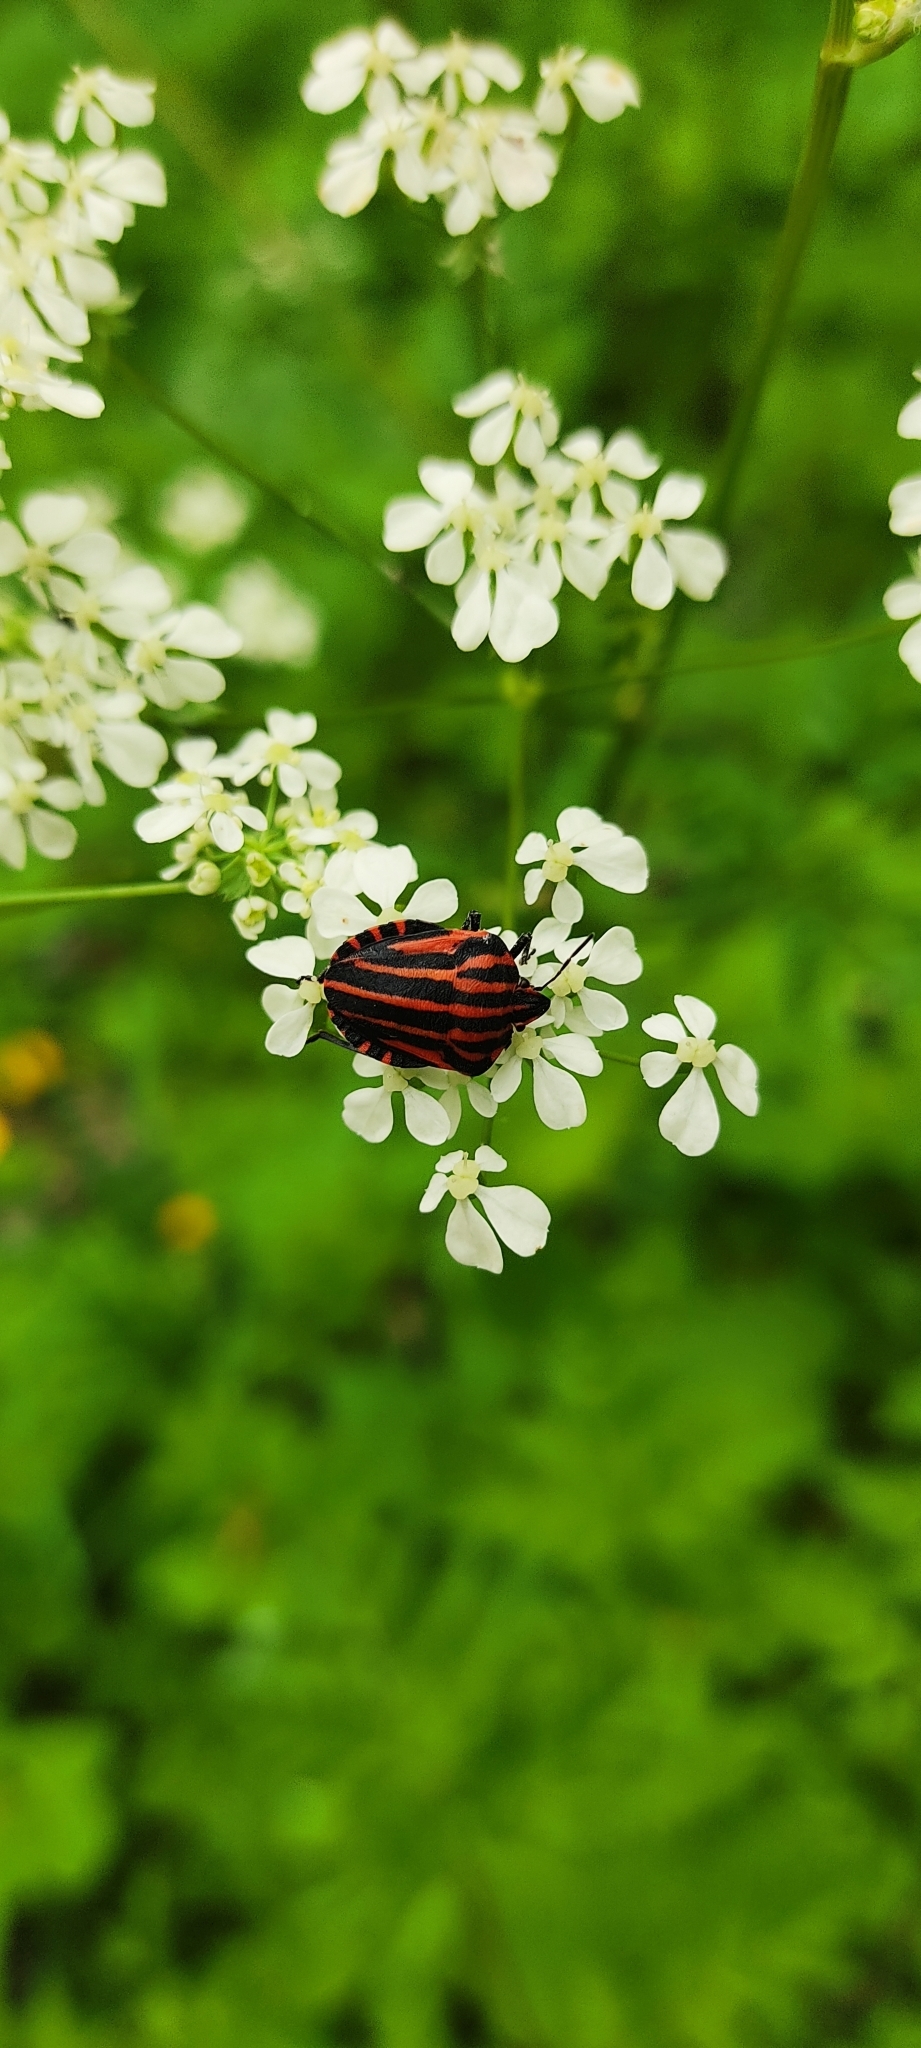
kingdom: Animalia
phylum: Arthropoda
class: Insecta
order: Hemiptera
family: Pentatomidae
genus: Graphosoma
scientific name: Graphosoma italicum
